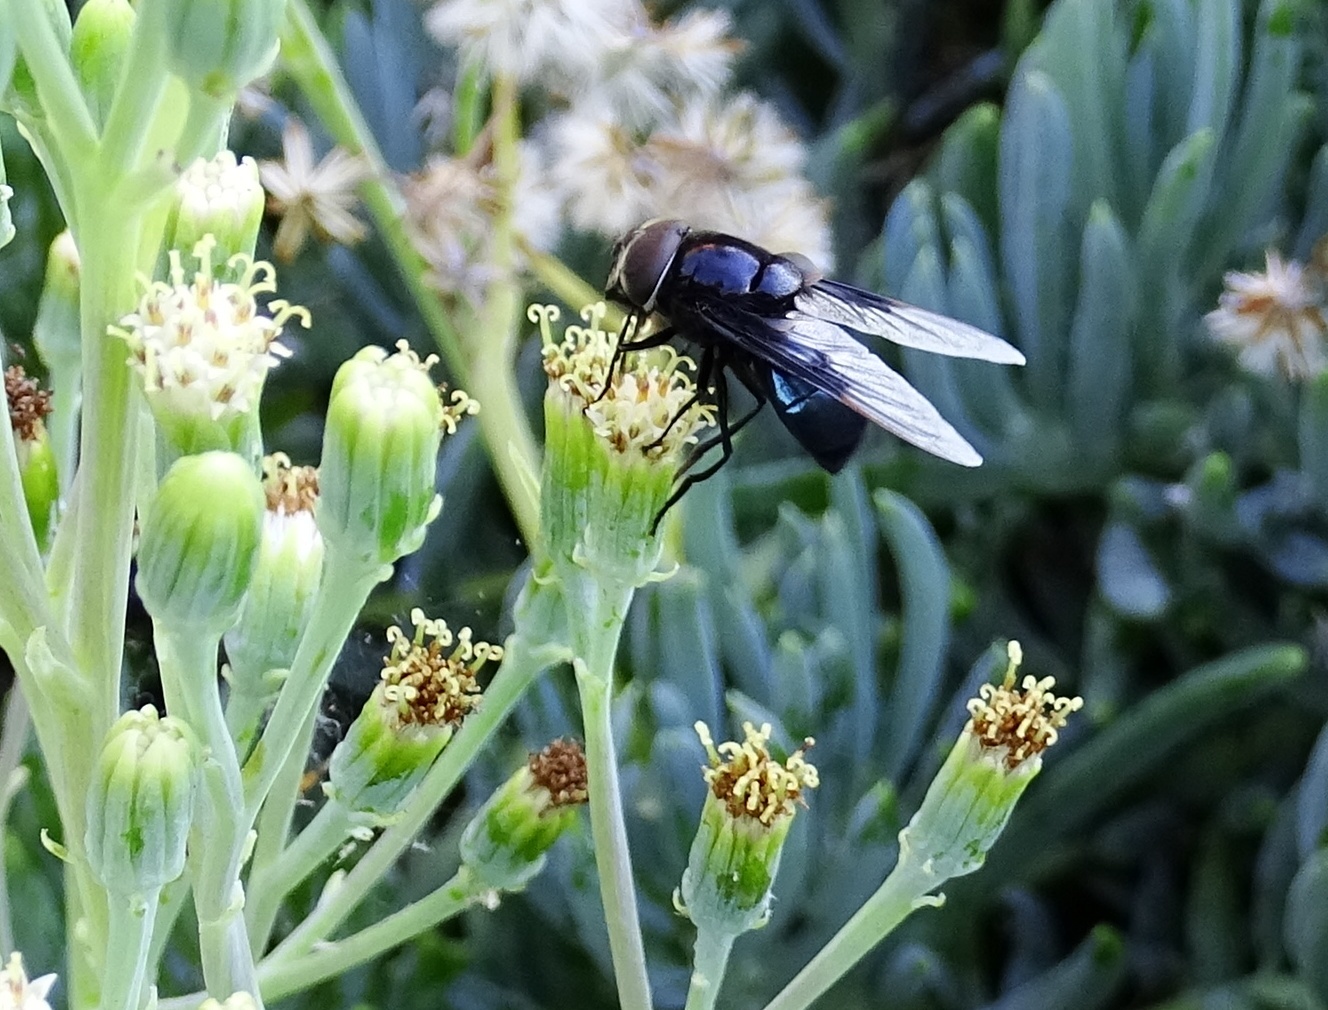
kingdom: Animalia
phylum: Arthropoda
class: Insecta
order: Diptera
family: Syrphidae
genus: Copestylum
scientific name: Copestylum mexicanum
